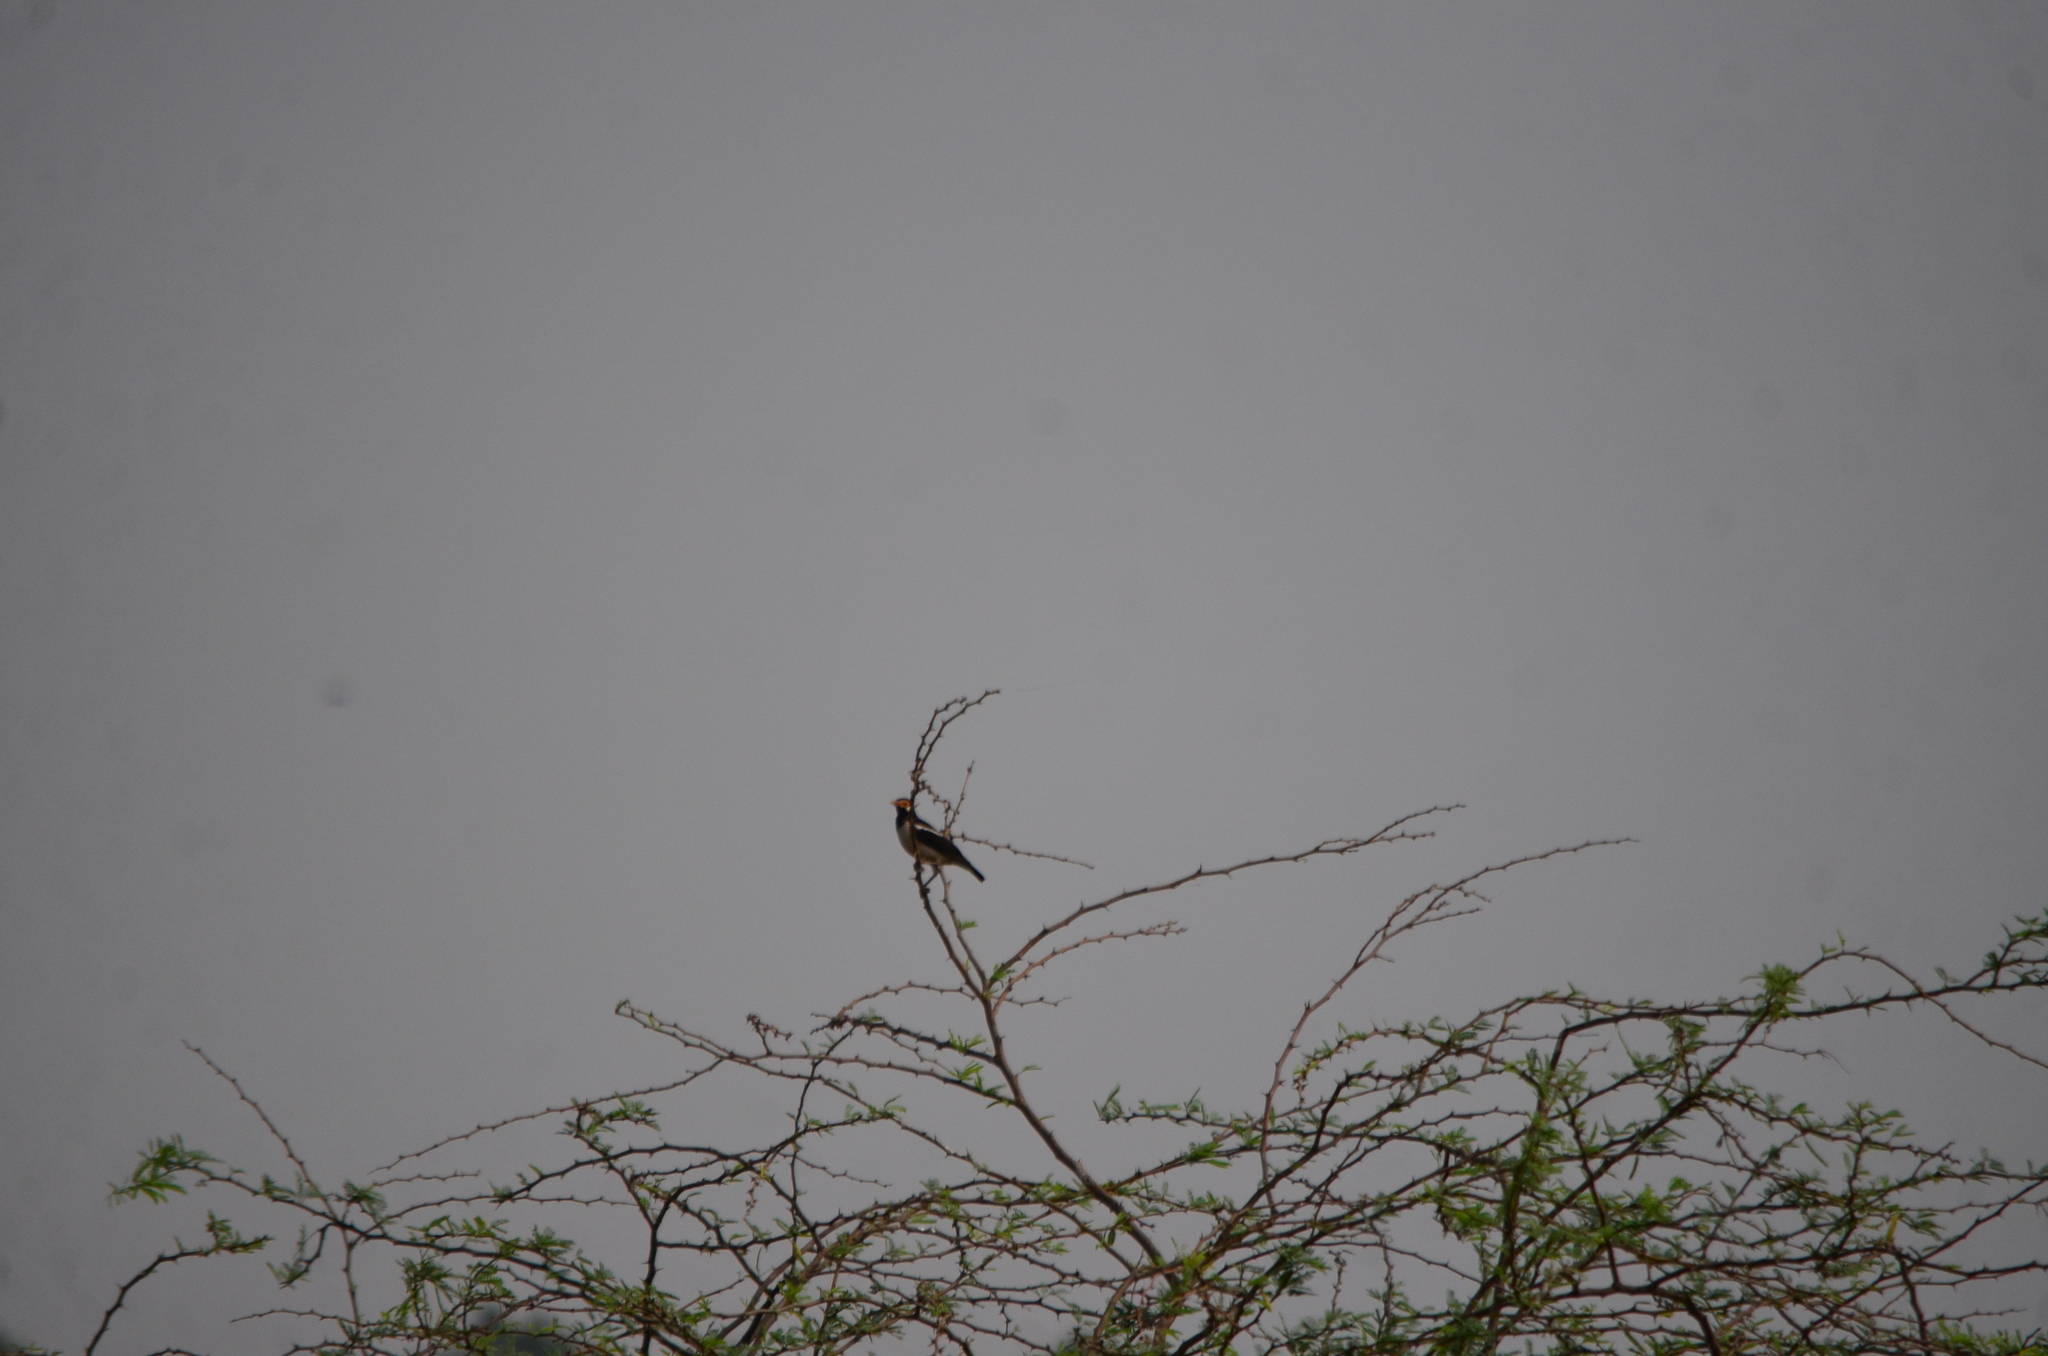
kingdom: Animalia
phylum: Chordata
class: Aves
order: Passeriformes
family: Sturnidae
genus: Gracupica
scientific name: Gracupica contra
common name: Pied myna
